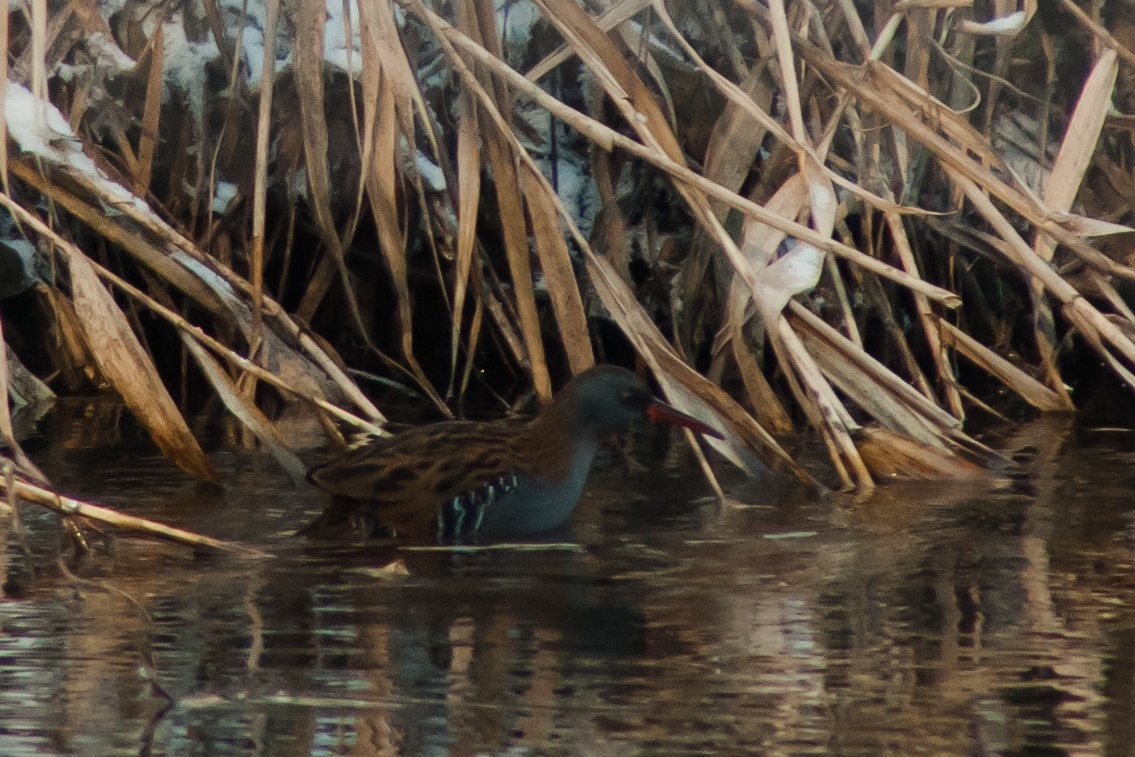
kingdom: Animalia
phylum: Chordata
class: Aves
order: Gruiformes
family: Rallidae
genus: Rallus
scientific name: Rallus aquaticus
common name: Water rail
